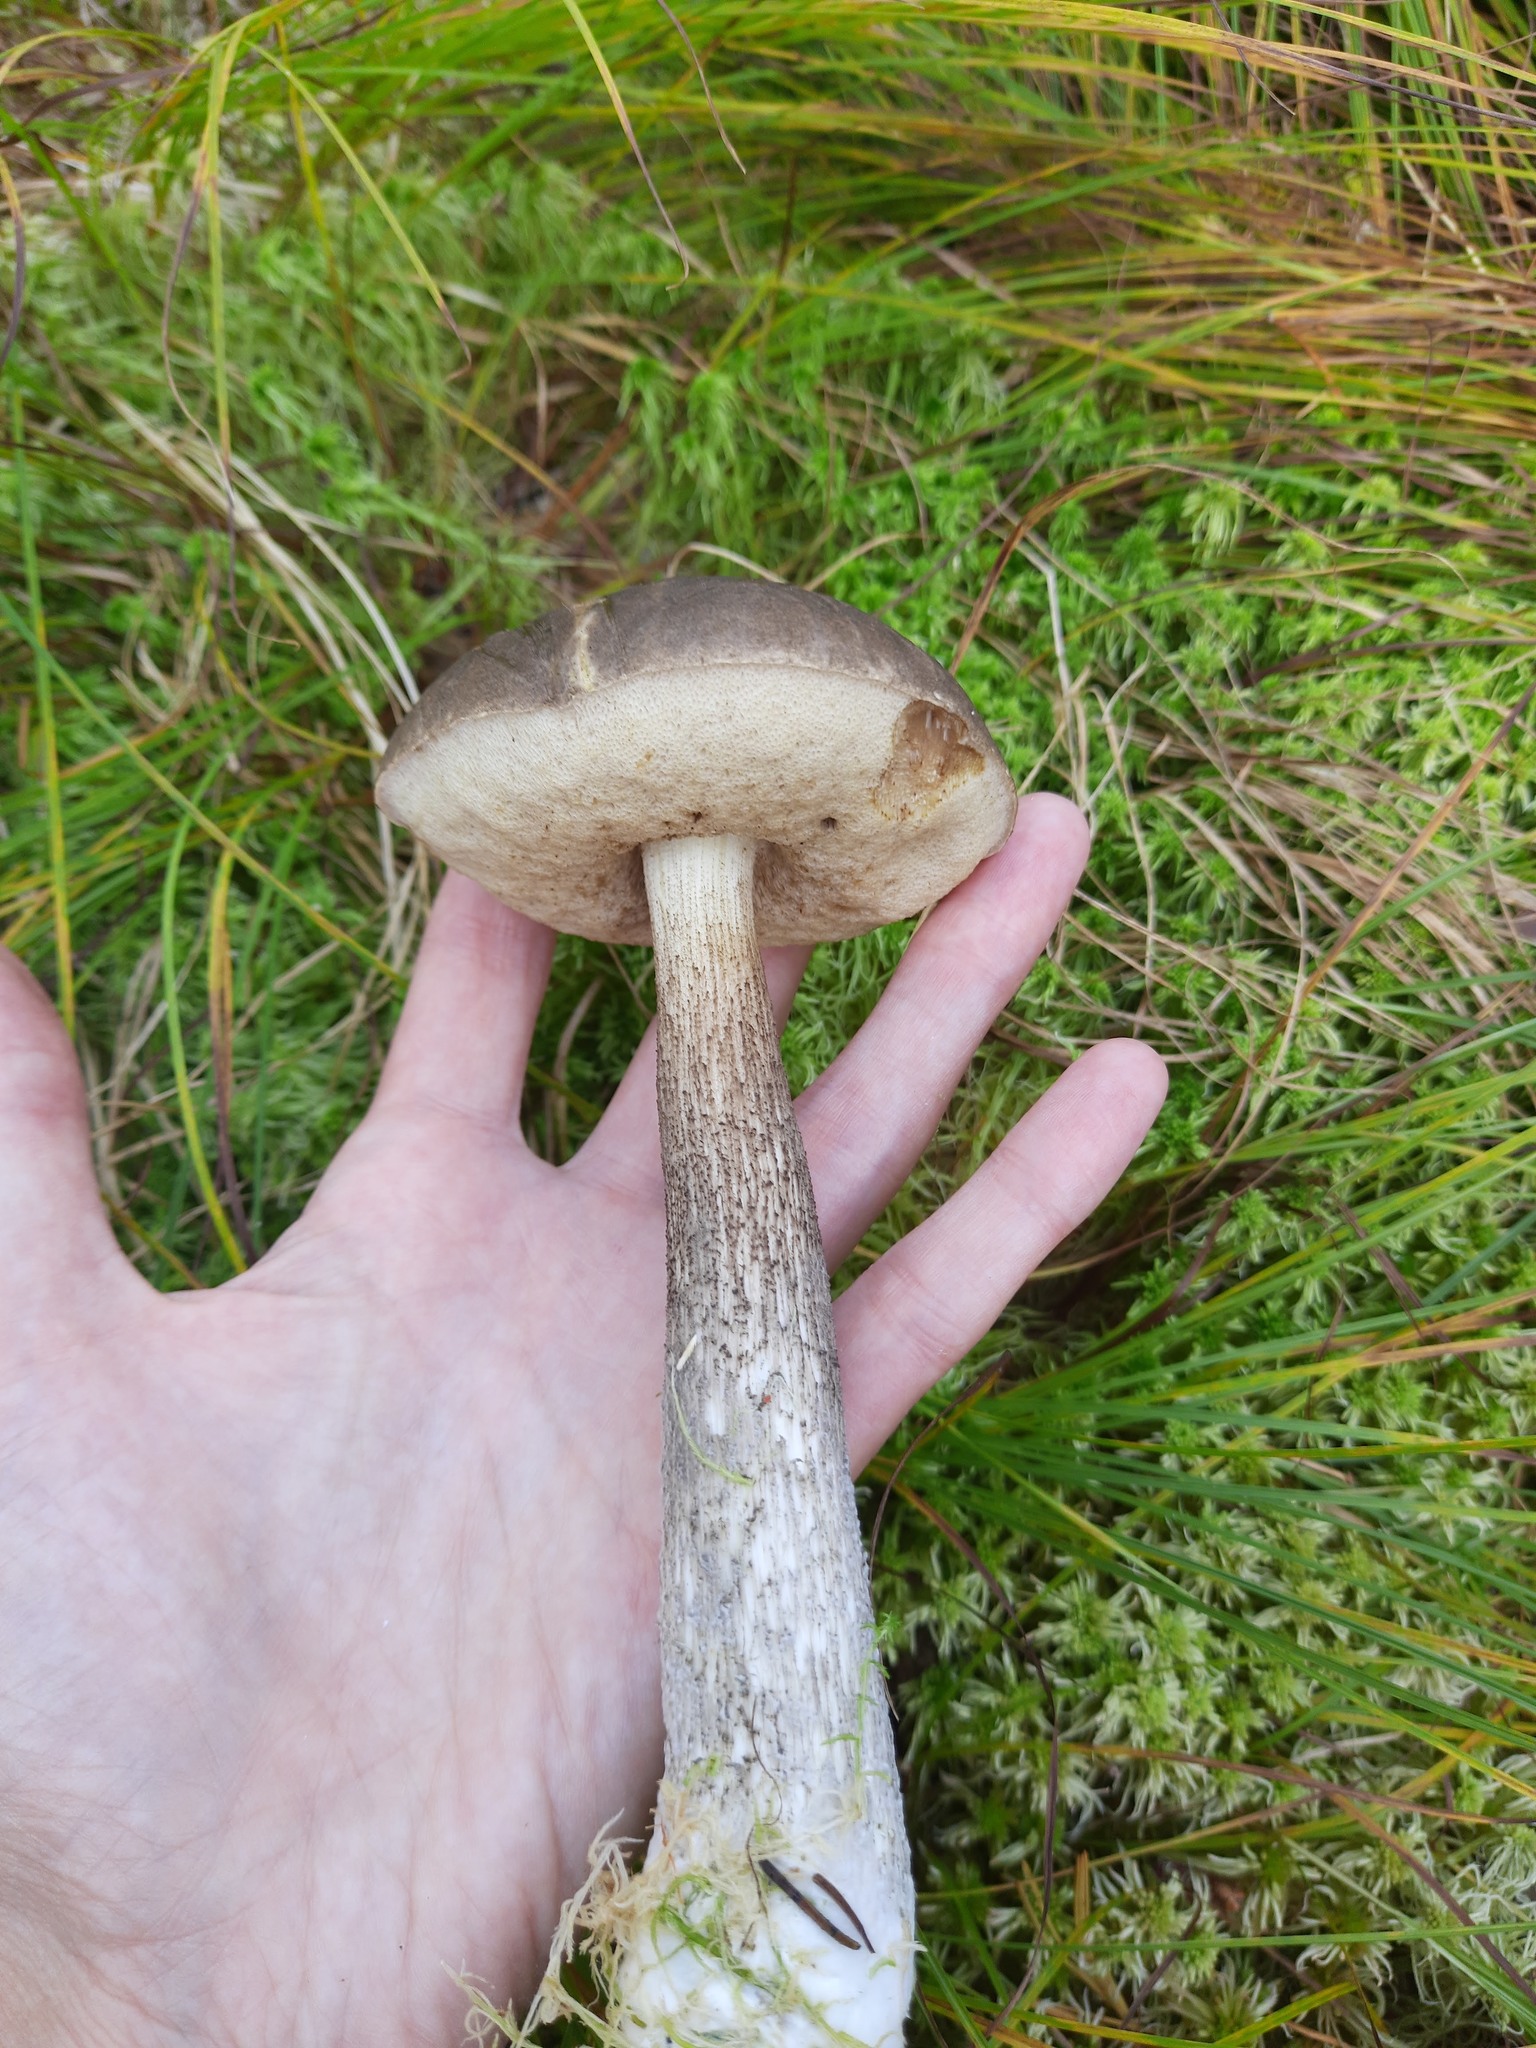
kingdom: Fungi
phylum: Basidiomycota
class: Agaricomycetes
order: Boletales
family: Boletaceae
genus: Leccinum
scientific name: Leccinum variicolor
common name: Mottled bolete
